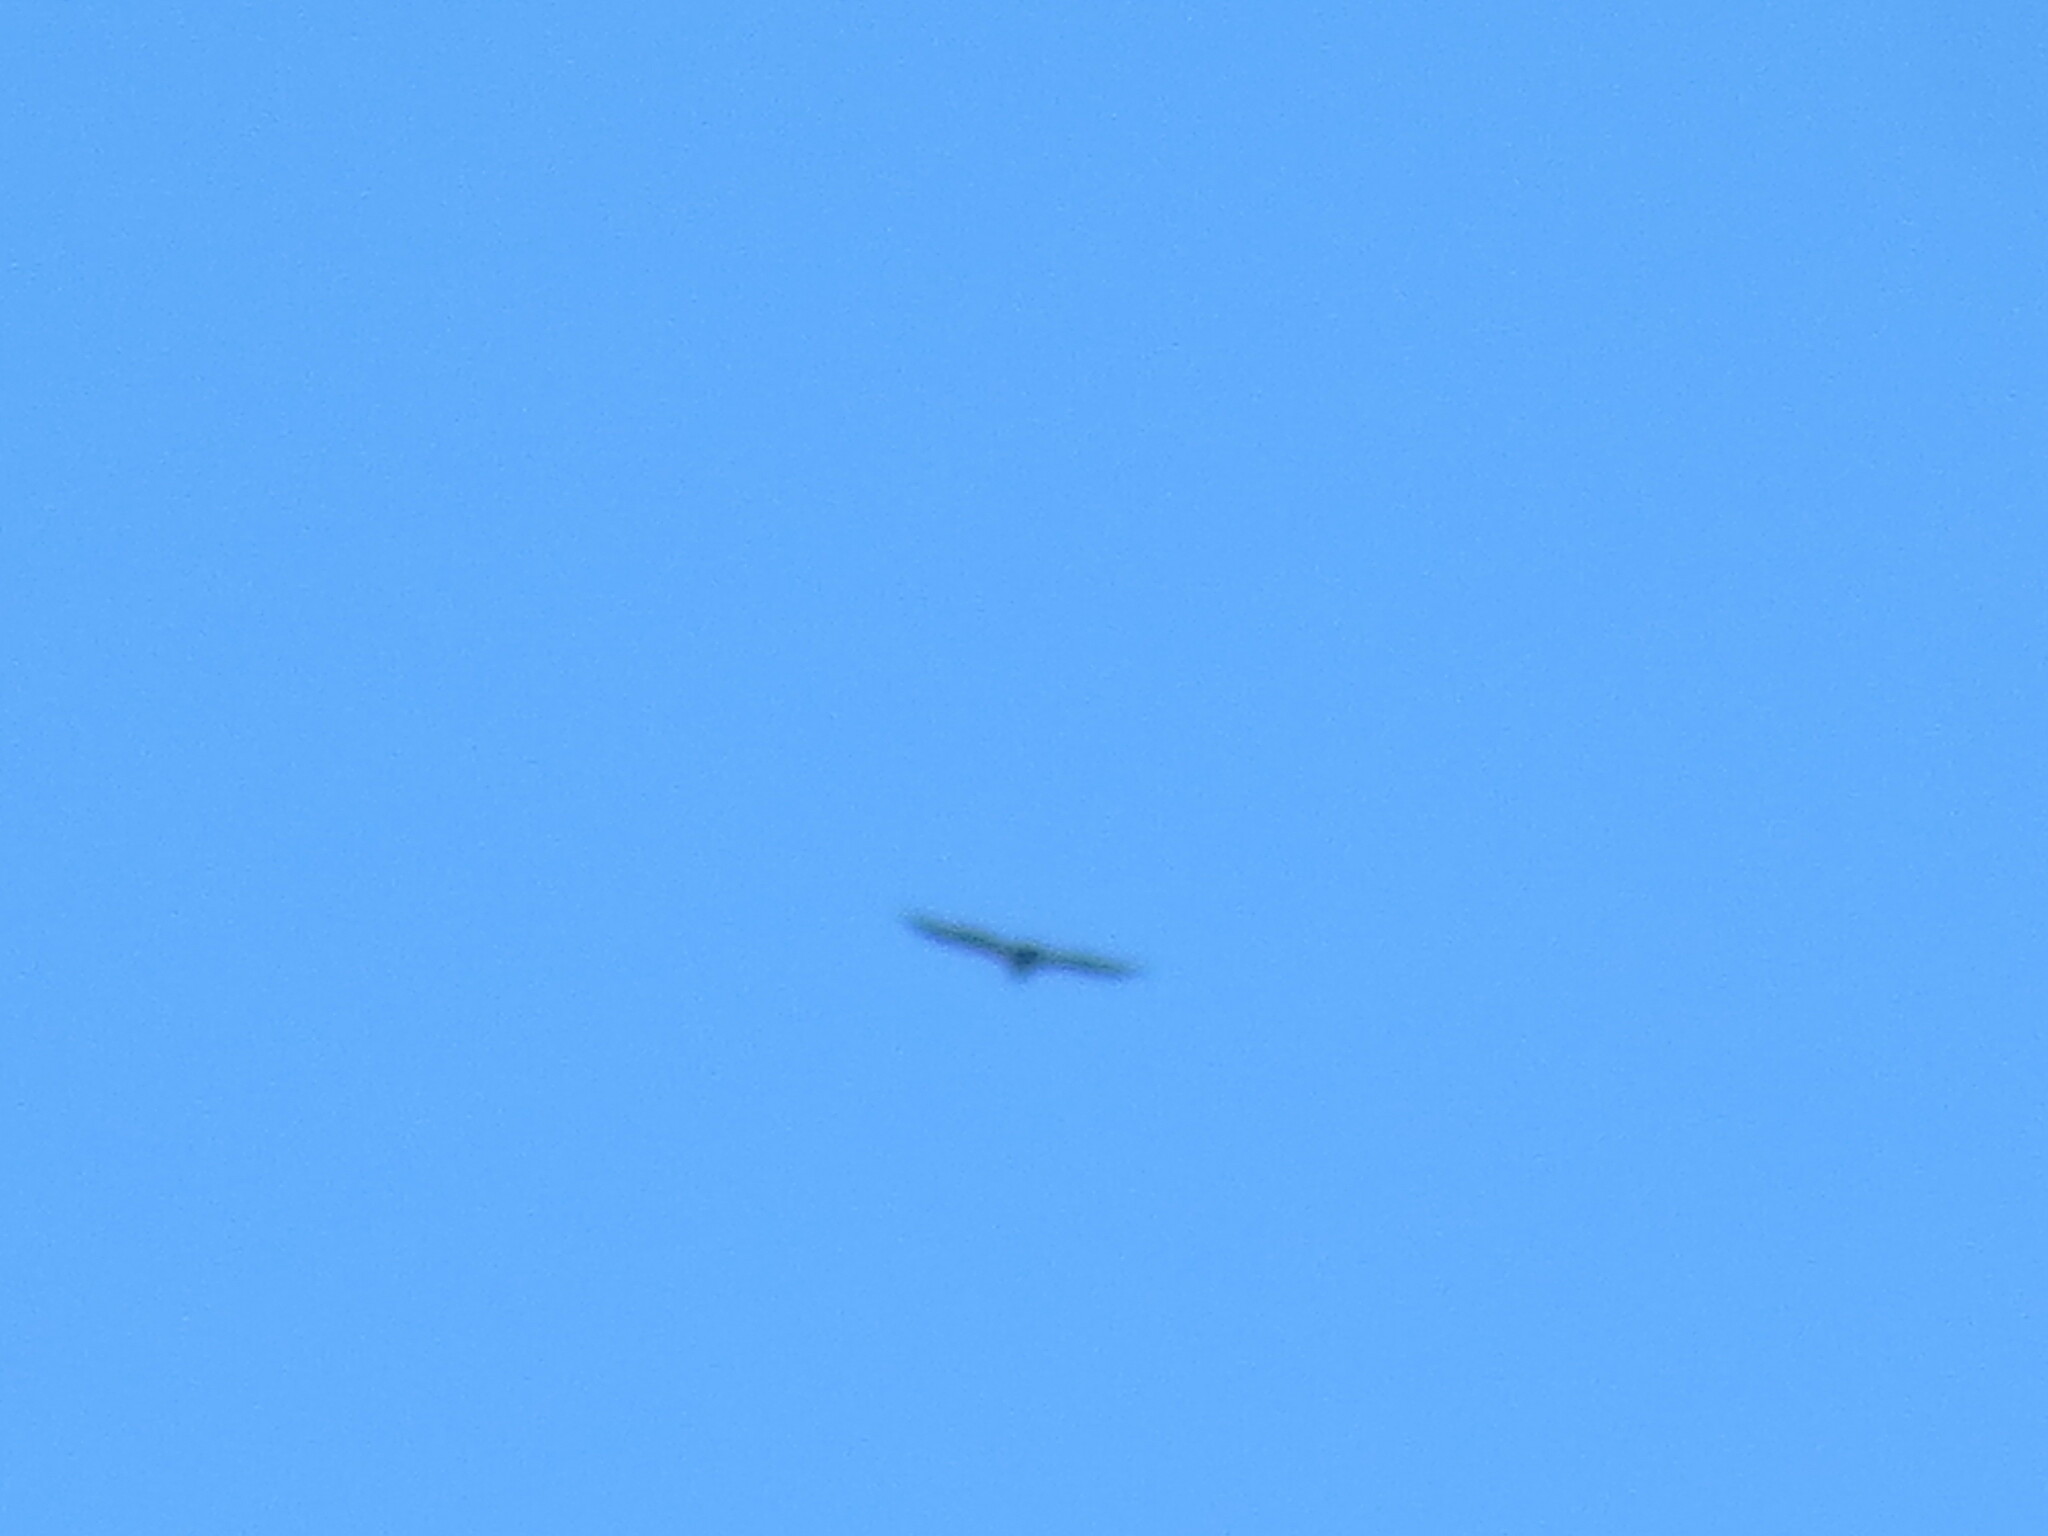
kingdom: Animalia
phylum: Chordata
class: Aves
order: Accipitriformes
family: Accipitridae
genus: Haliaeetus
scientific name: Haliaeetus leucocephalus
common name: Bald eagle
